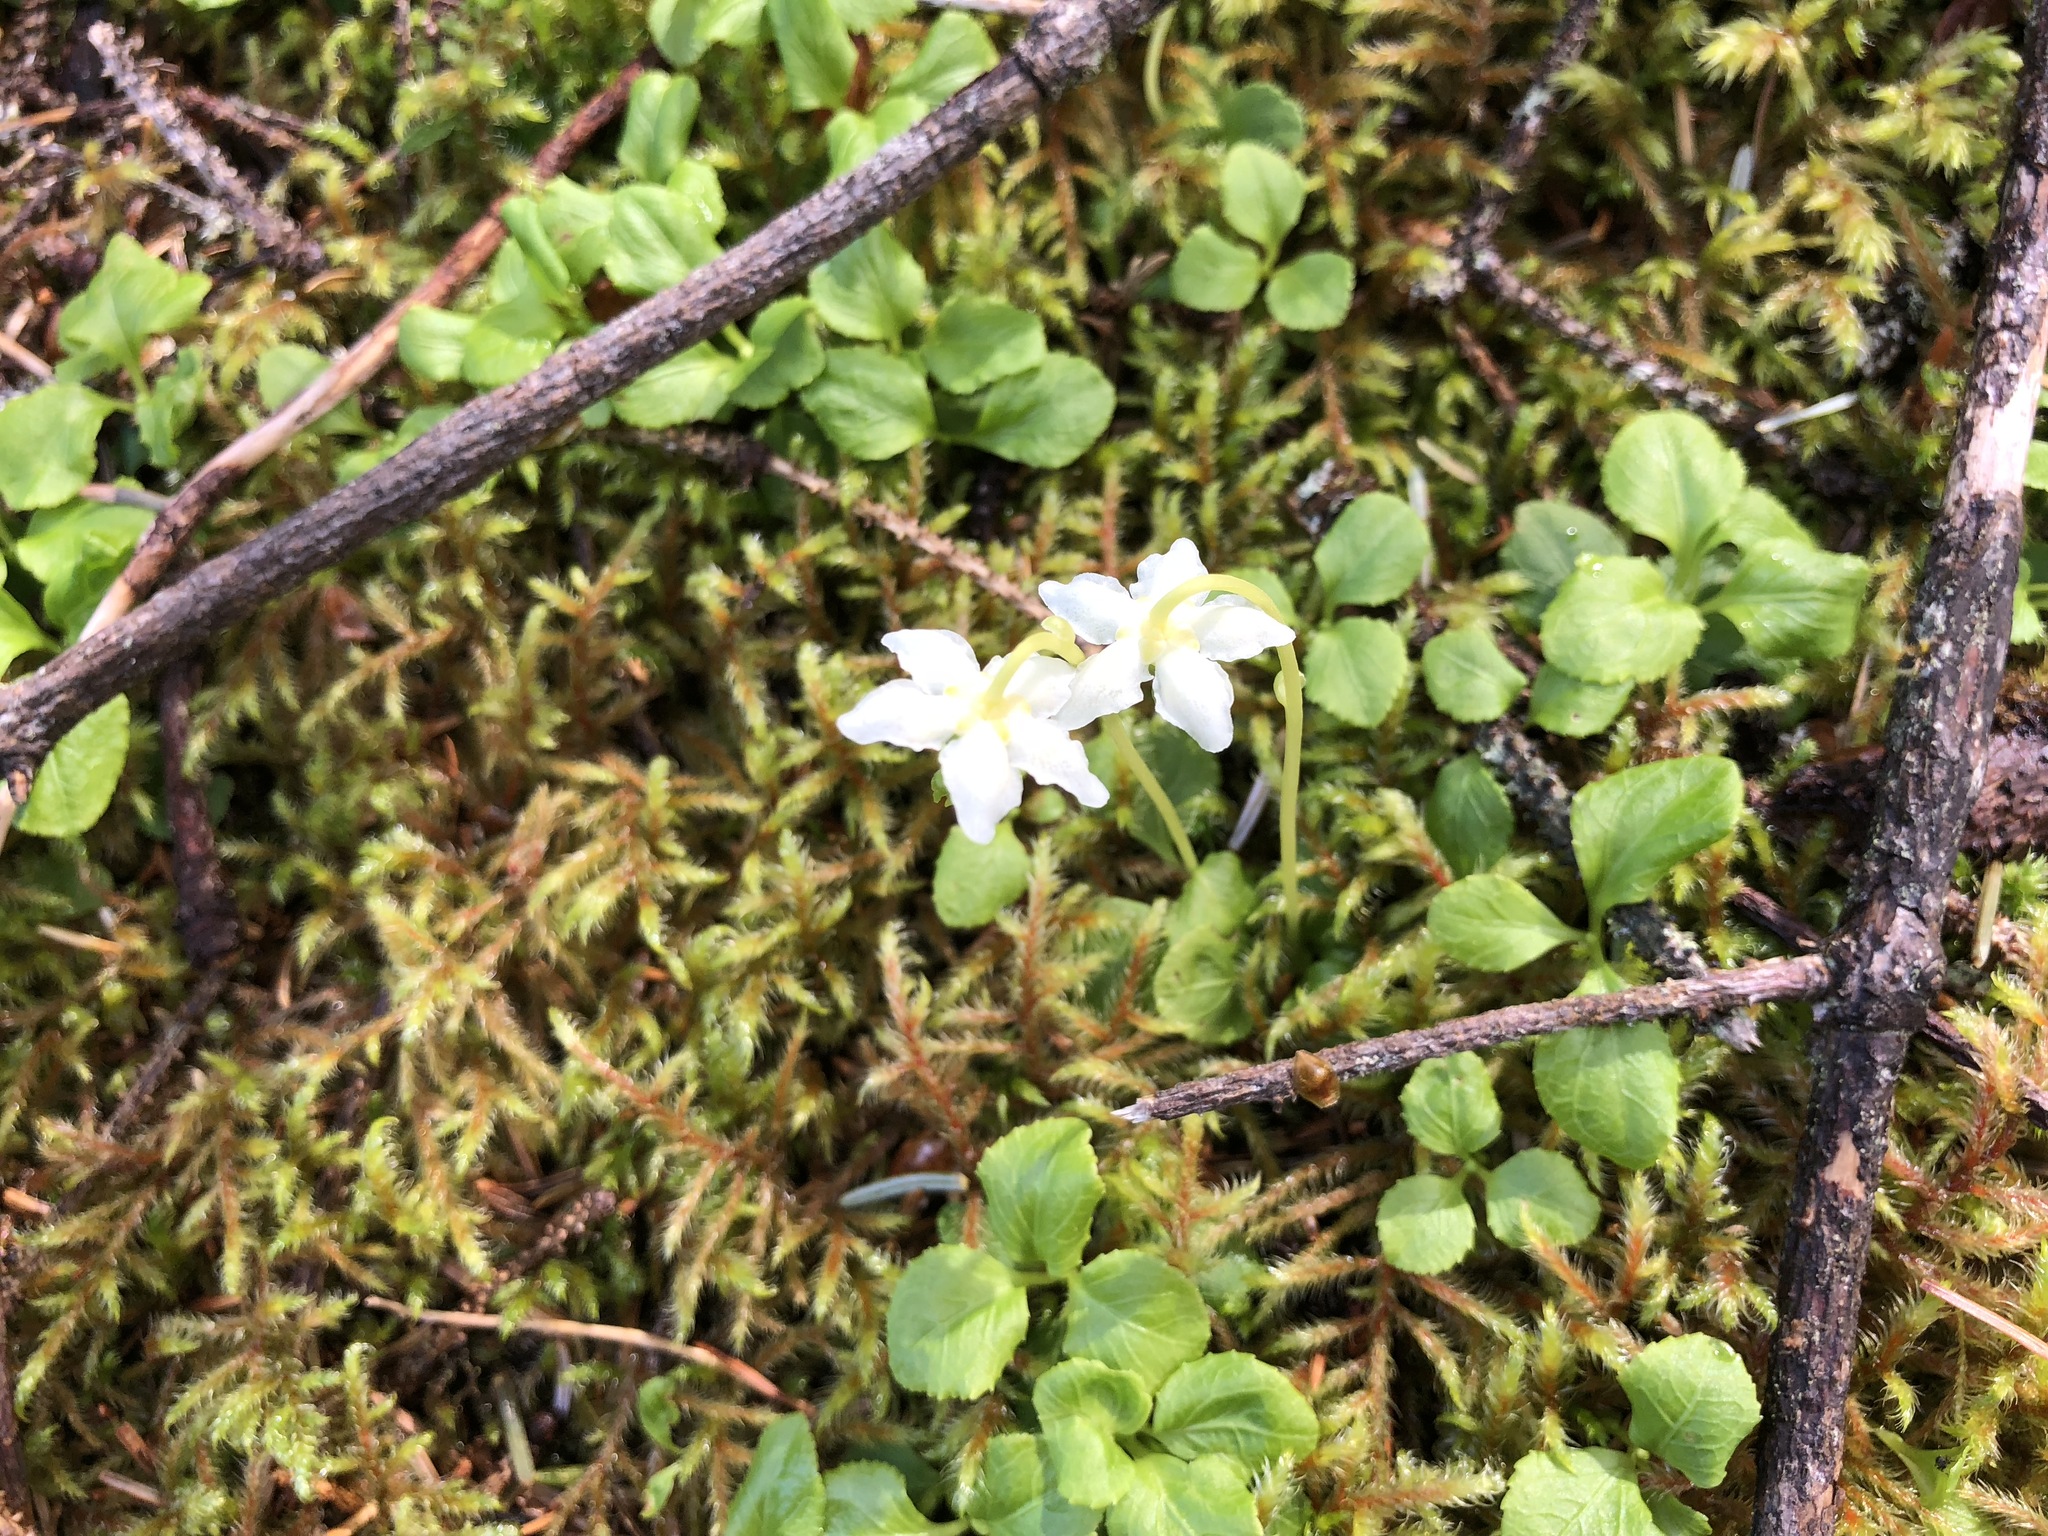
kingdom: Plantae
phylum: Tracheophyta
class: Magnoliopsida
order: Ericales
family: Ericaceae
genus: Moneses
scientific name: Moneses uniflora
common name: One-flowered wintergreen
